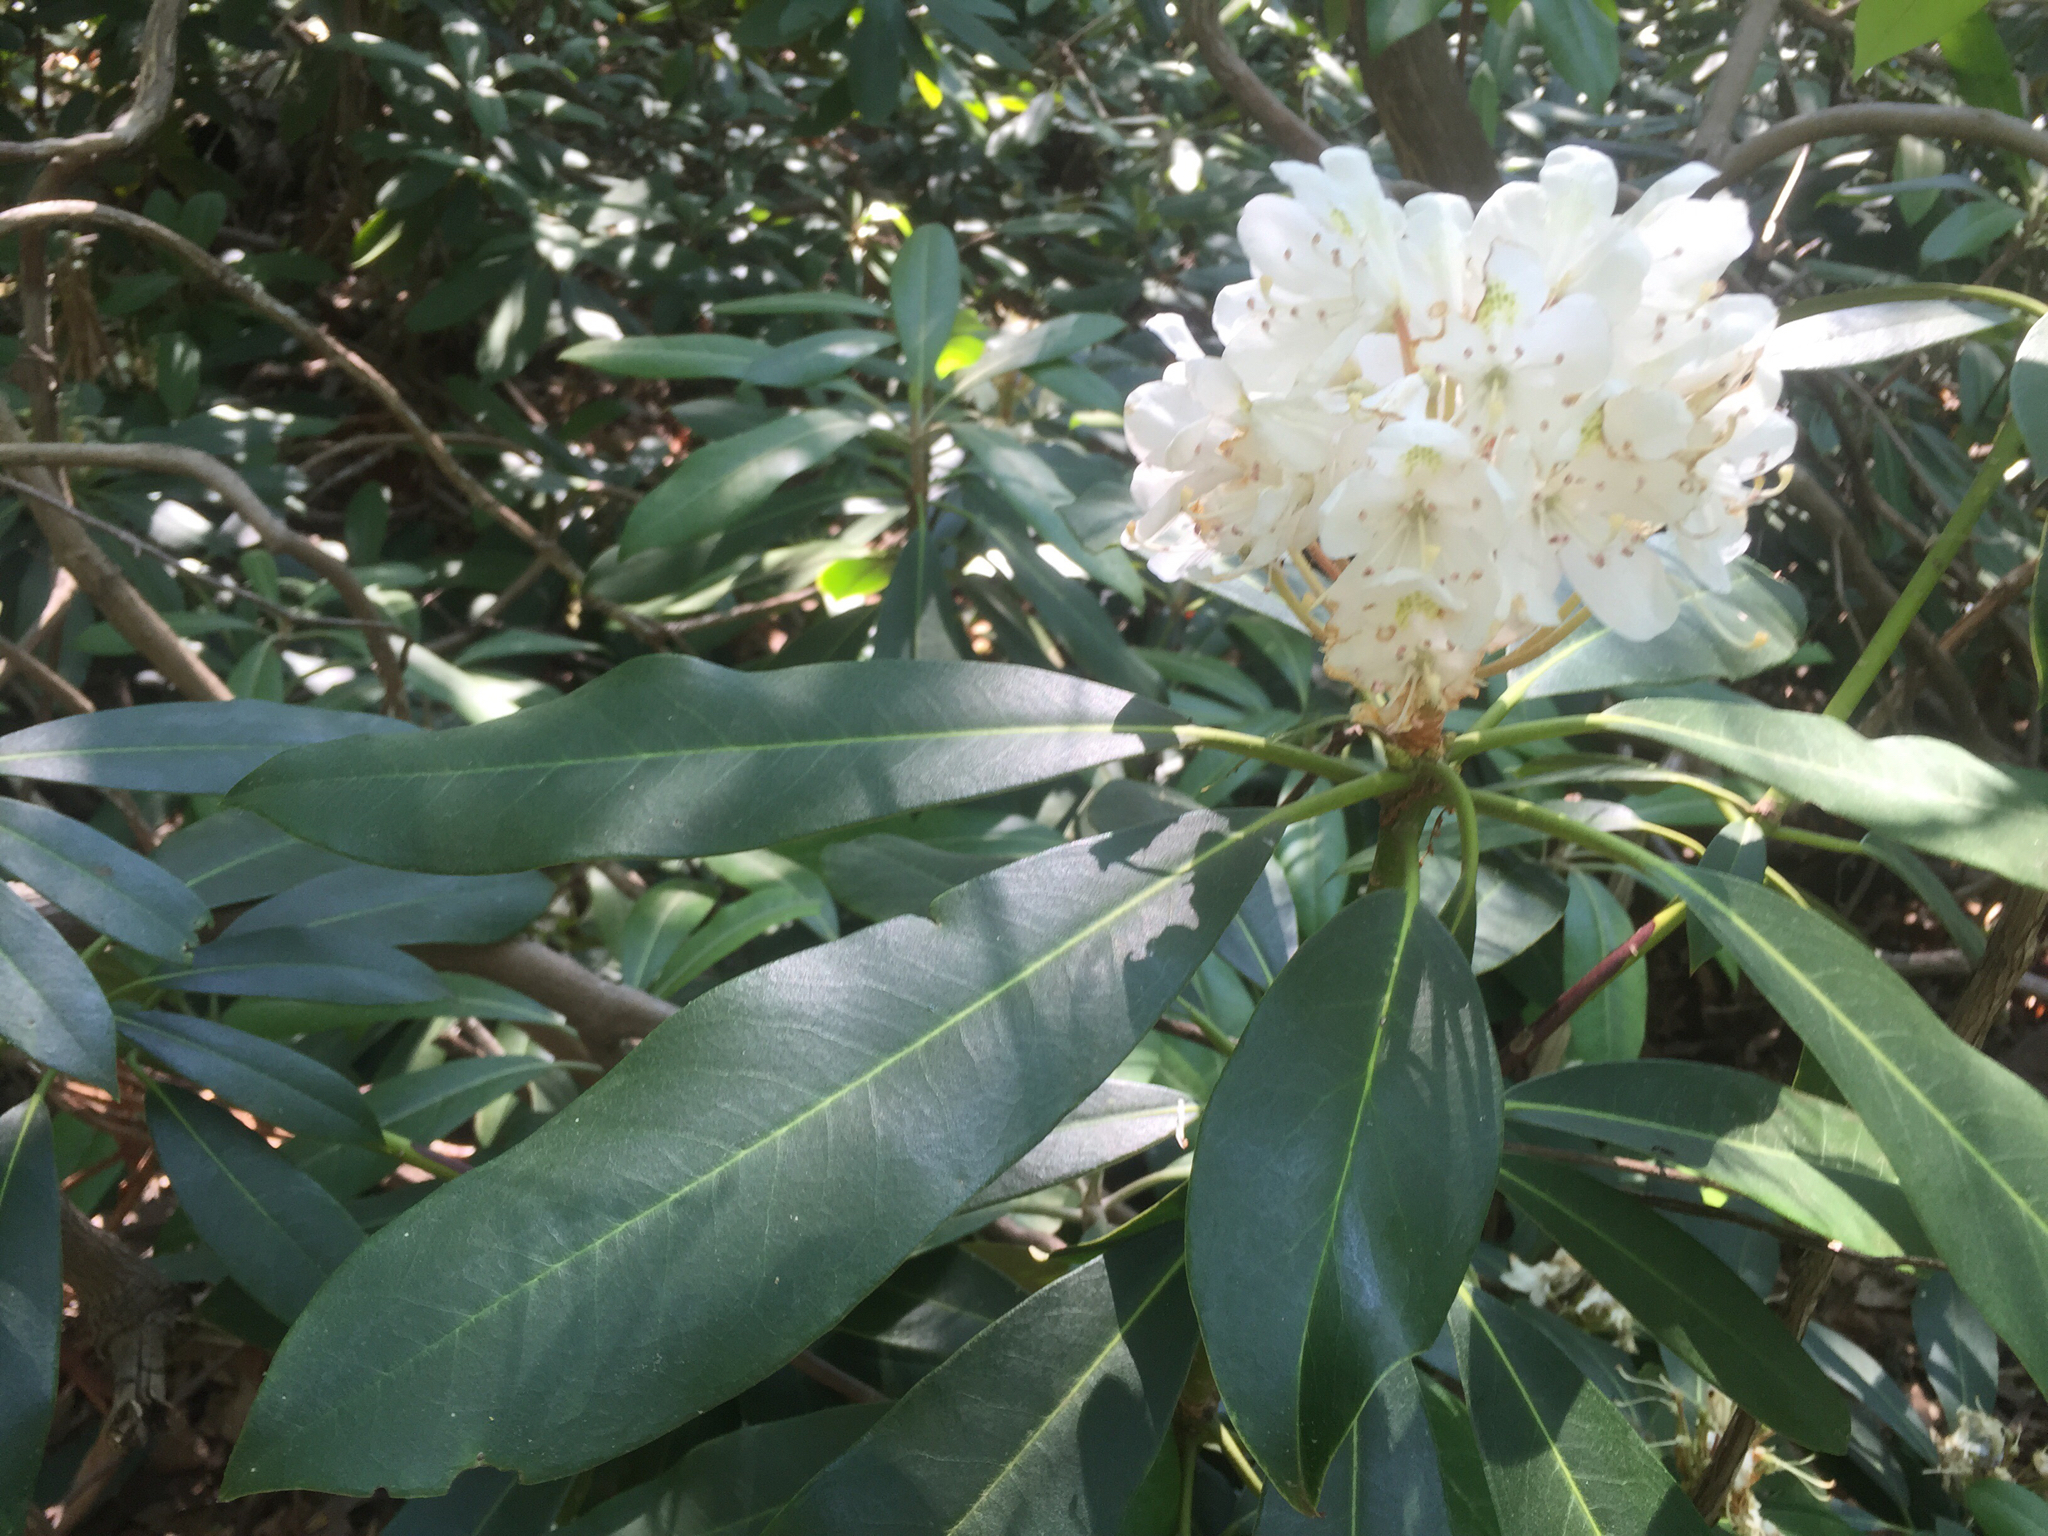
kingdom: Plantae
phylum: Tracheophyta
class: Magnoliopsida
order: Ericales
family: Ericaceae
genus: Rhododendron
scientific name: Rhododendron maximum
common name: Great rhododendron
